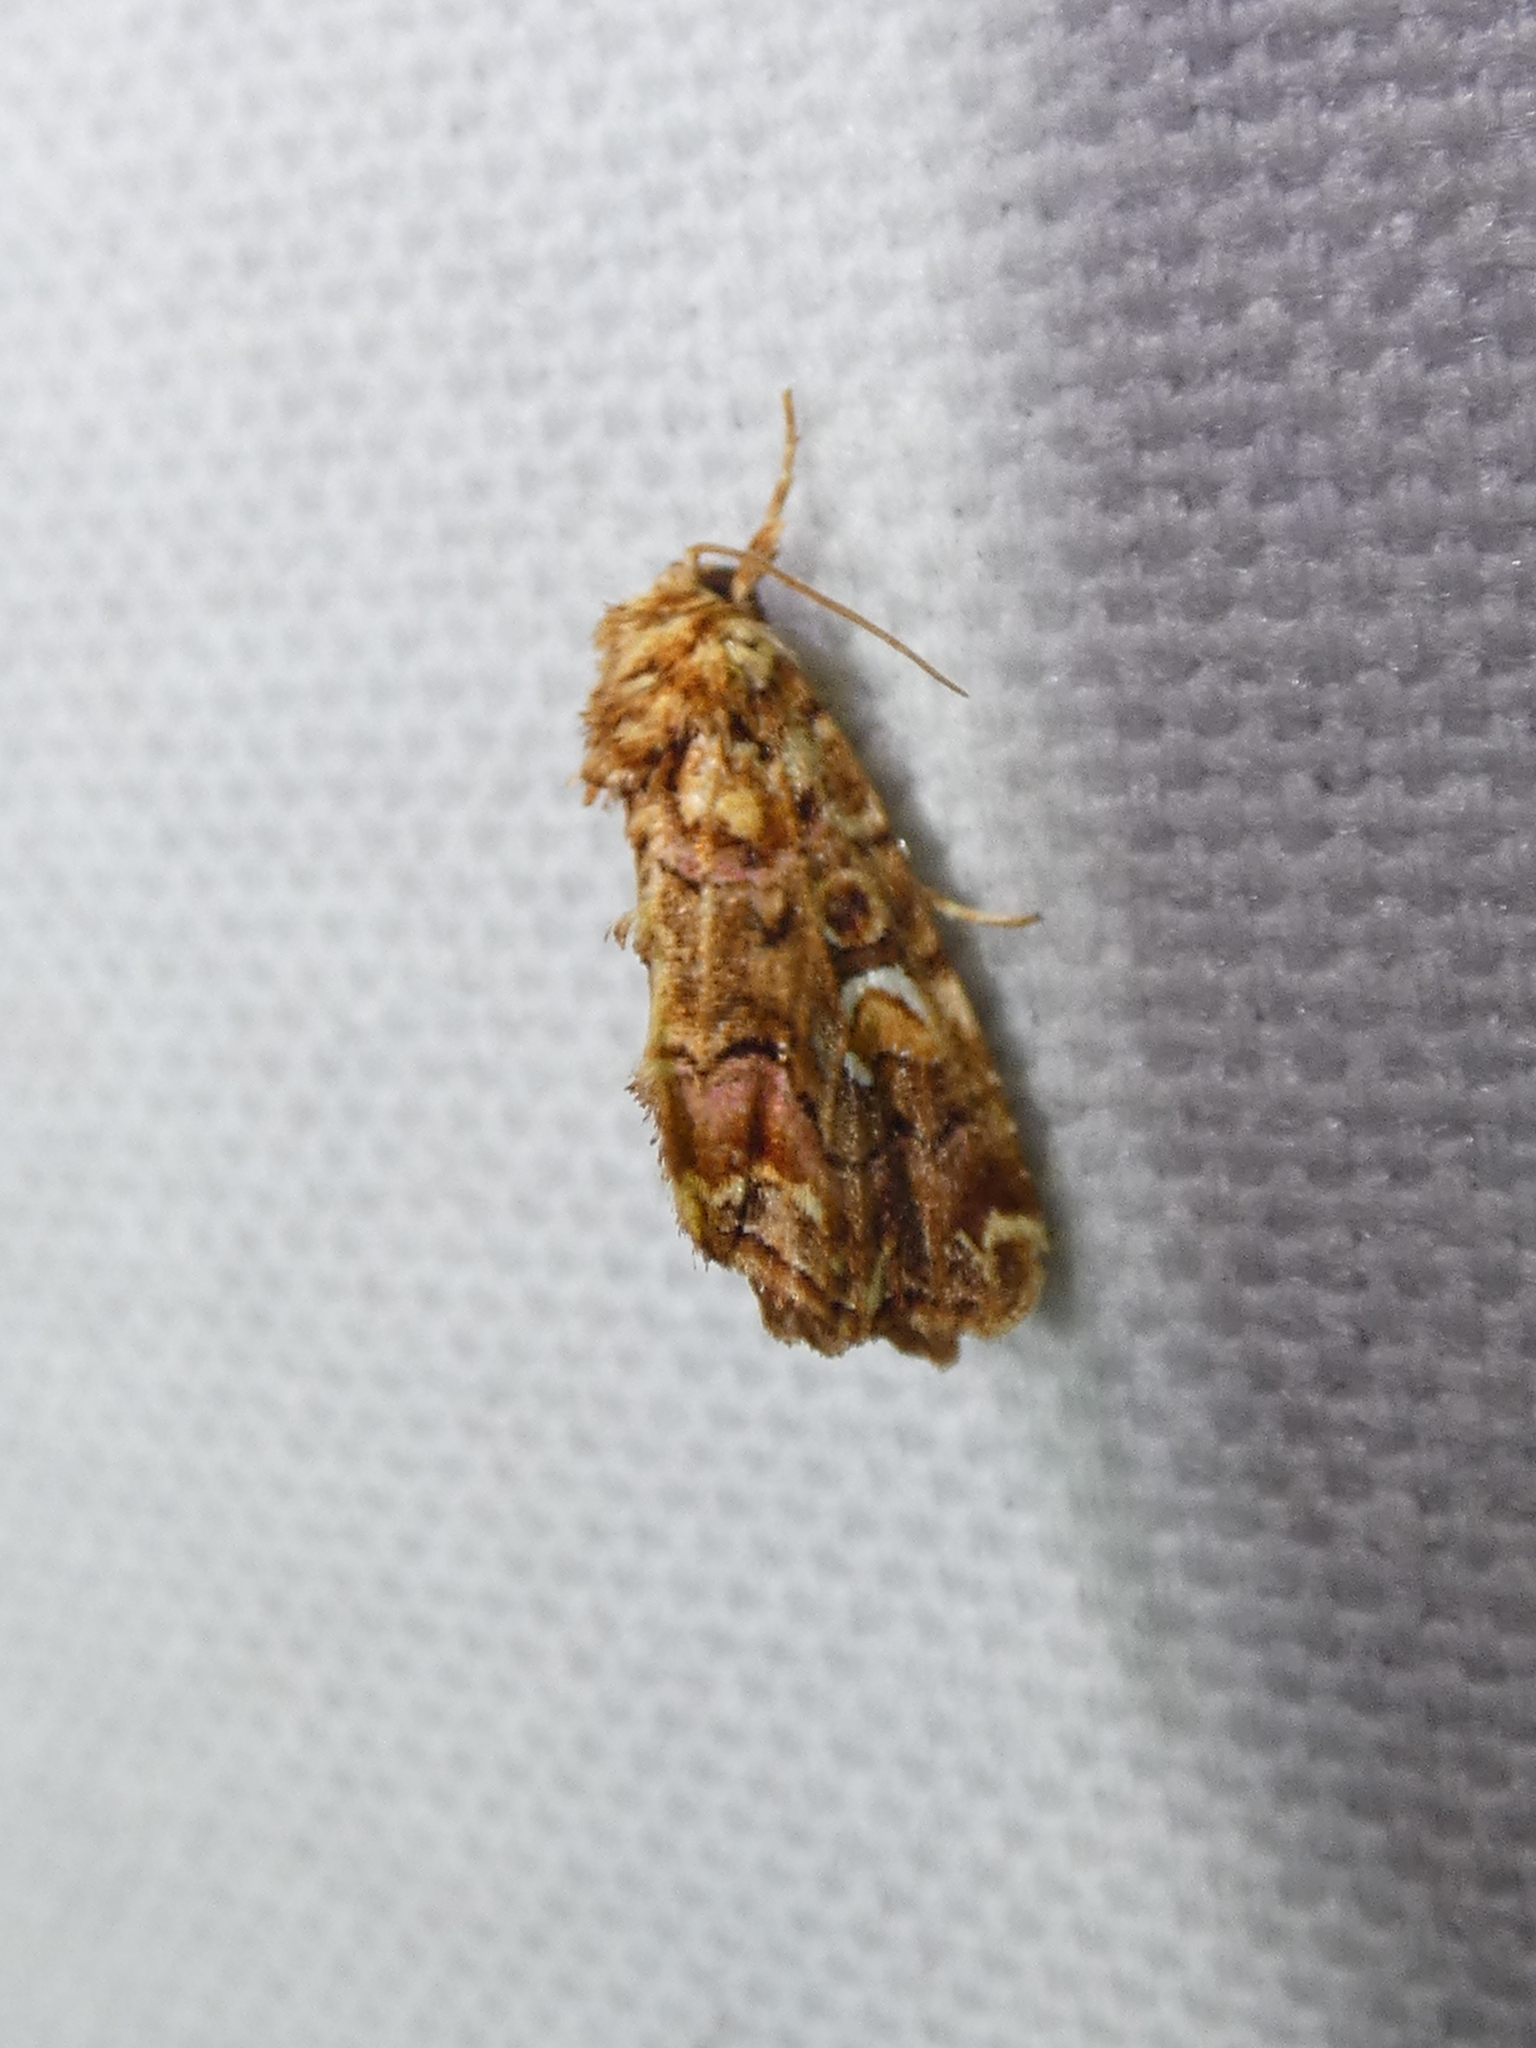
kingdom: Animalia
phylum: Arthropoda
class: Insecta
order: Lepidoptera
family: Noctuidae
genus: Callopistria
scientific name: Callopistria mollissima
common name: Pink-shaded fern moth
